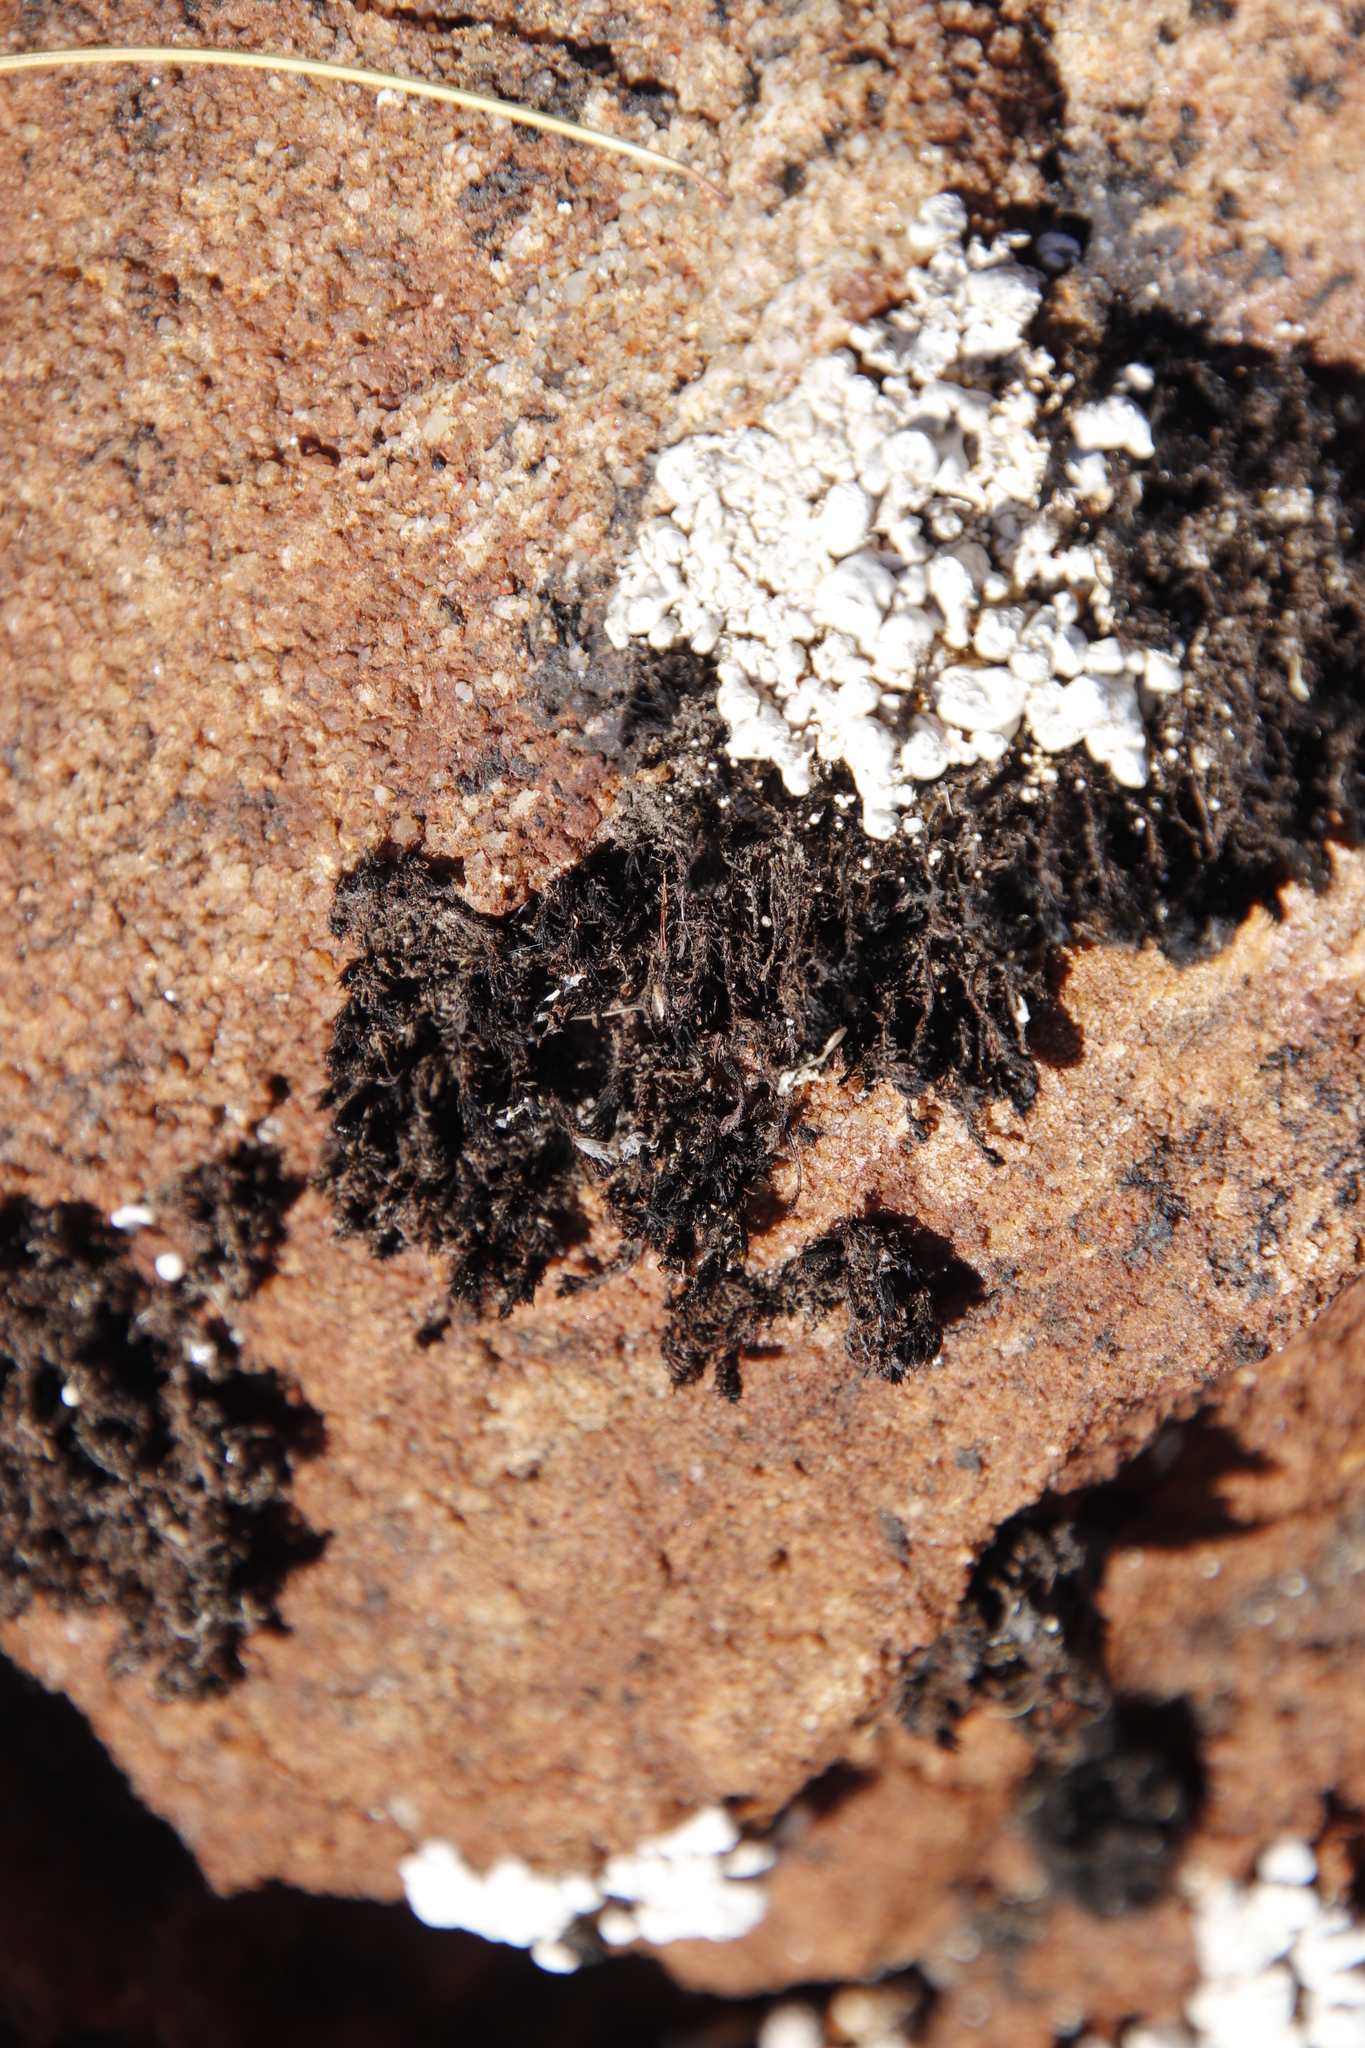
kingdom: Fungi
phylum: Ascomycota
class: Lecanoromycetes
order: Pertusariales
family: Icmadophilaceae
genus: Siphula
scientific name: Siphula verrucigera
